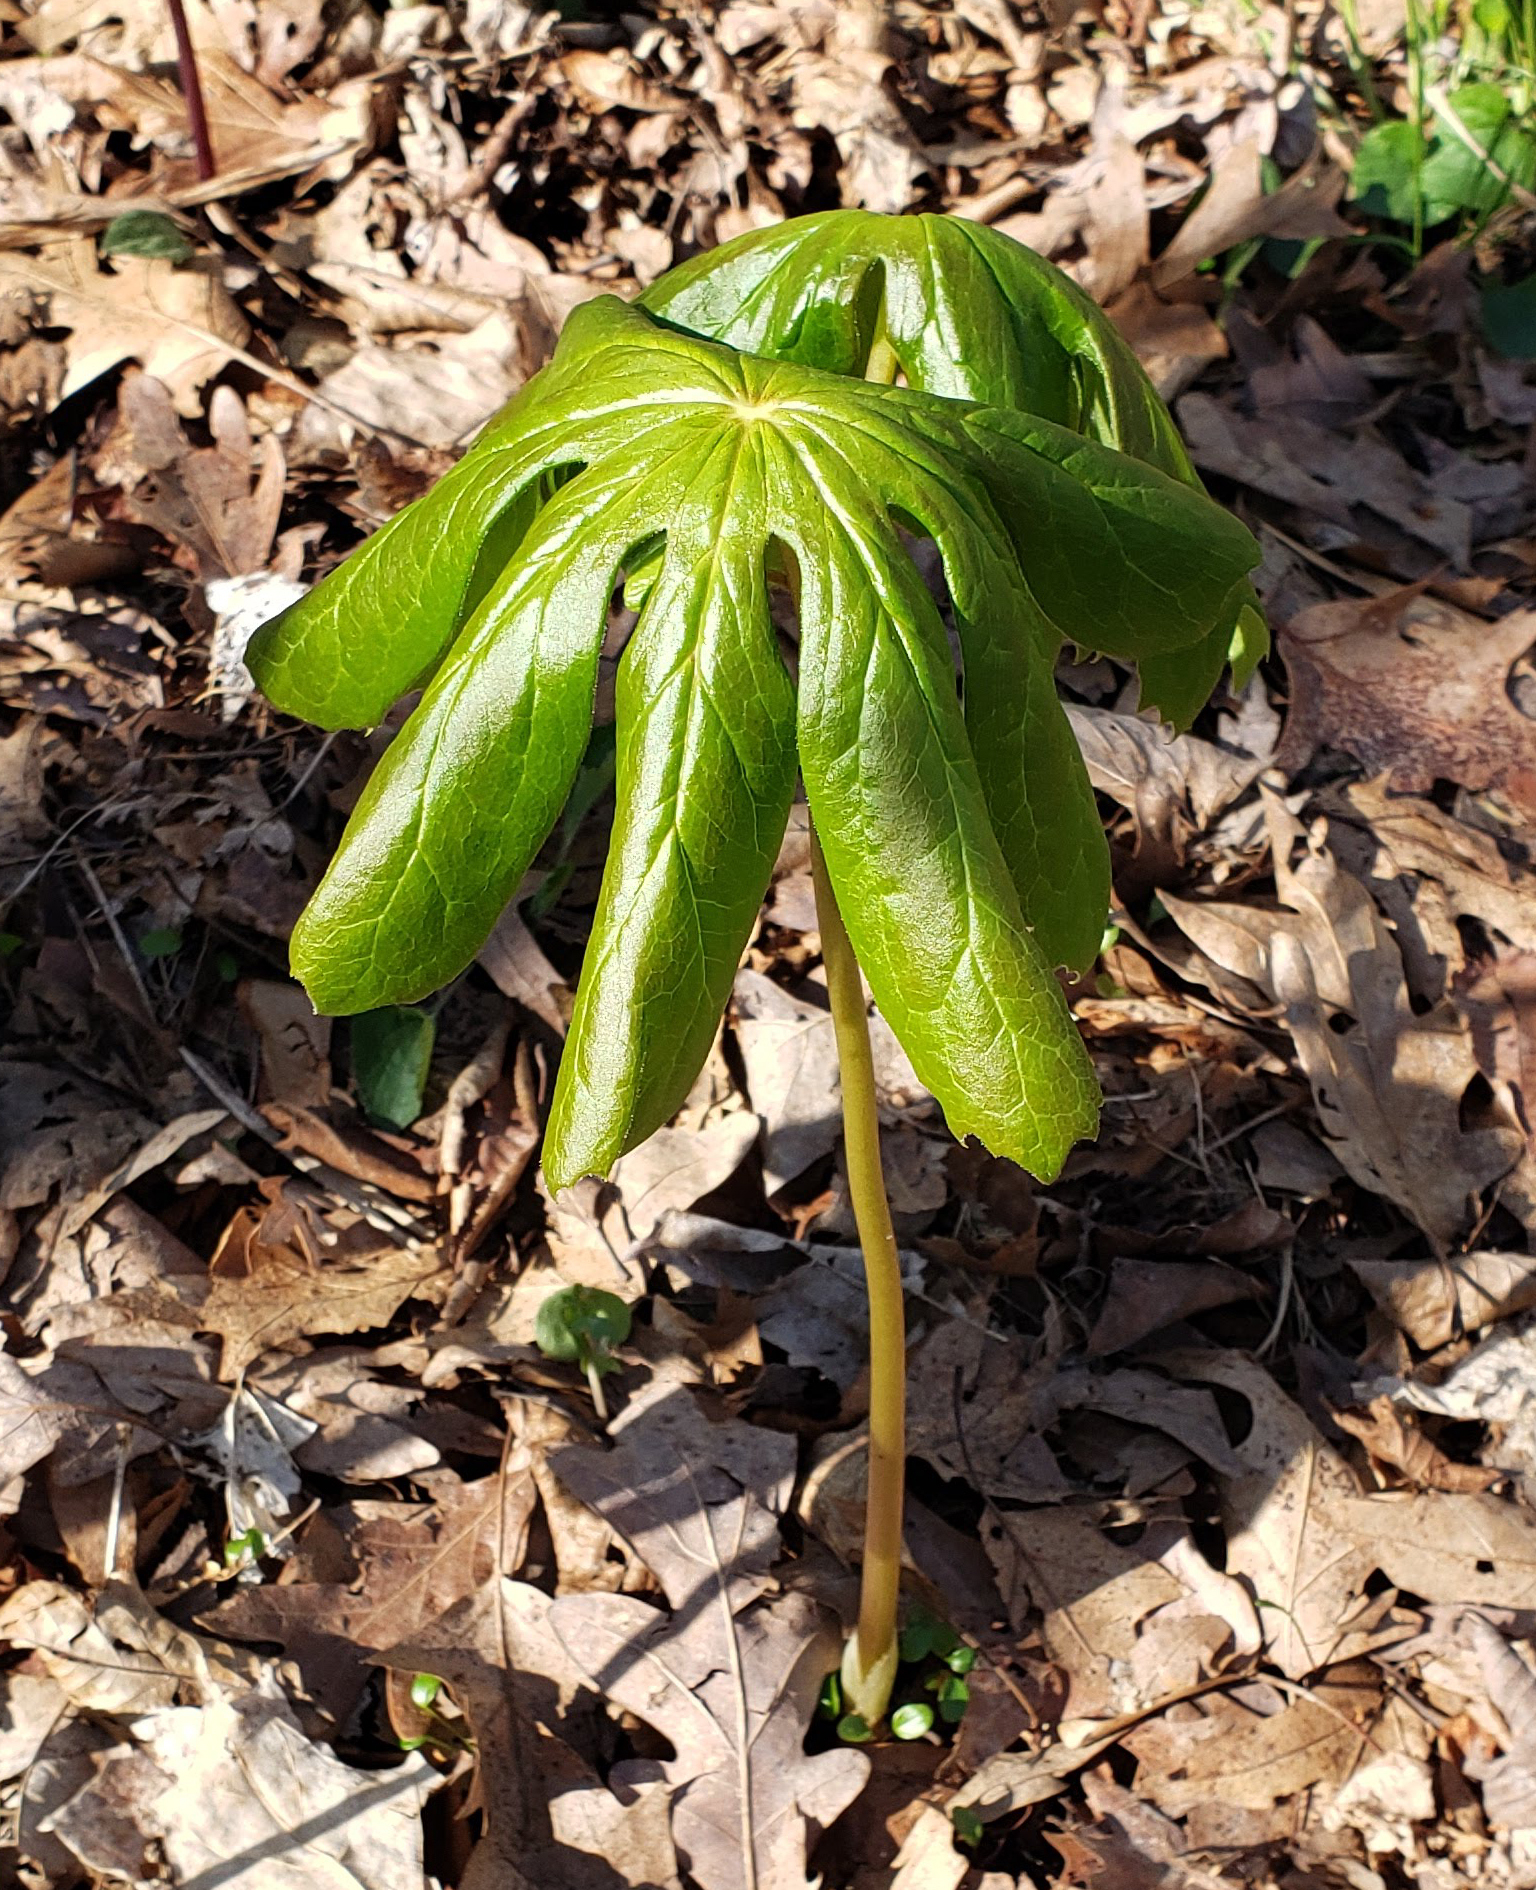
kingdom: Plantae
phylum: Tracheophyta
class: Magnoliopsida
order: Ranunculales
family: Berberidaceae
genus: Podophyllum
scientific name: Podophyllum peltatum
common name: Wild mandrake
